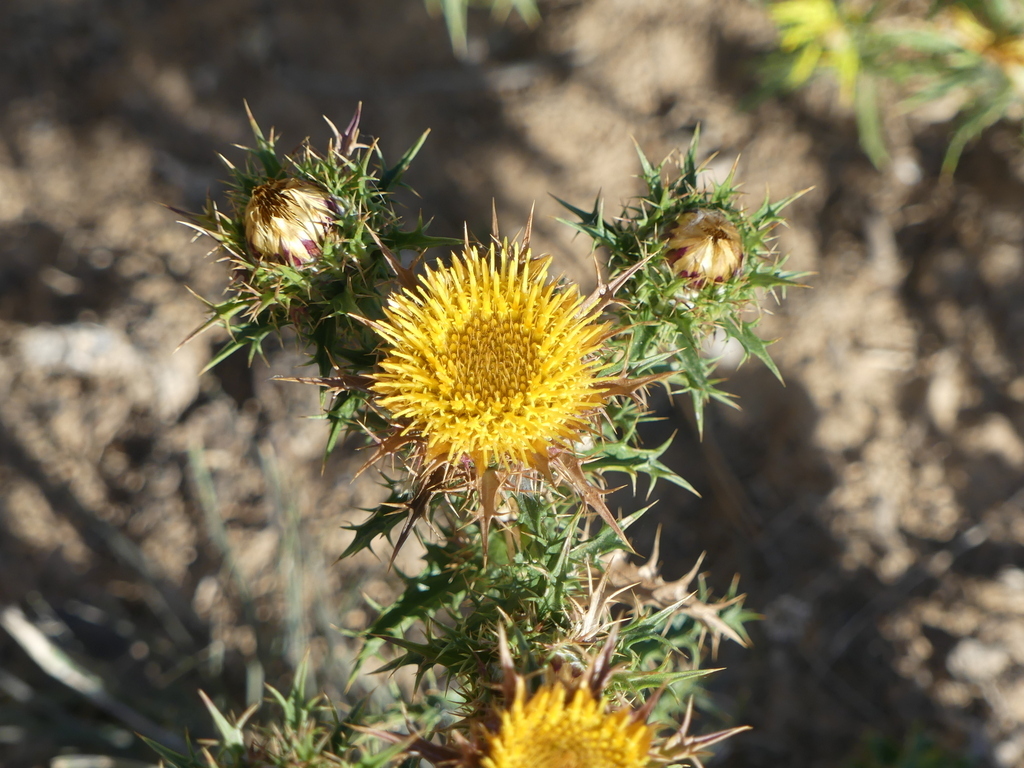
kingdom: Plantae
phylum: Tracheophyta
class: Magnoliopsida
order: Asterales
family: Asteraceae
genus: Carlina
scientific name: Carlina hispanica
